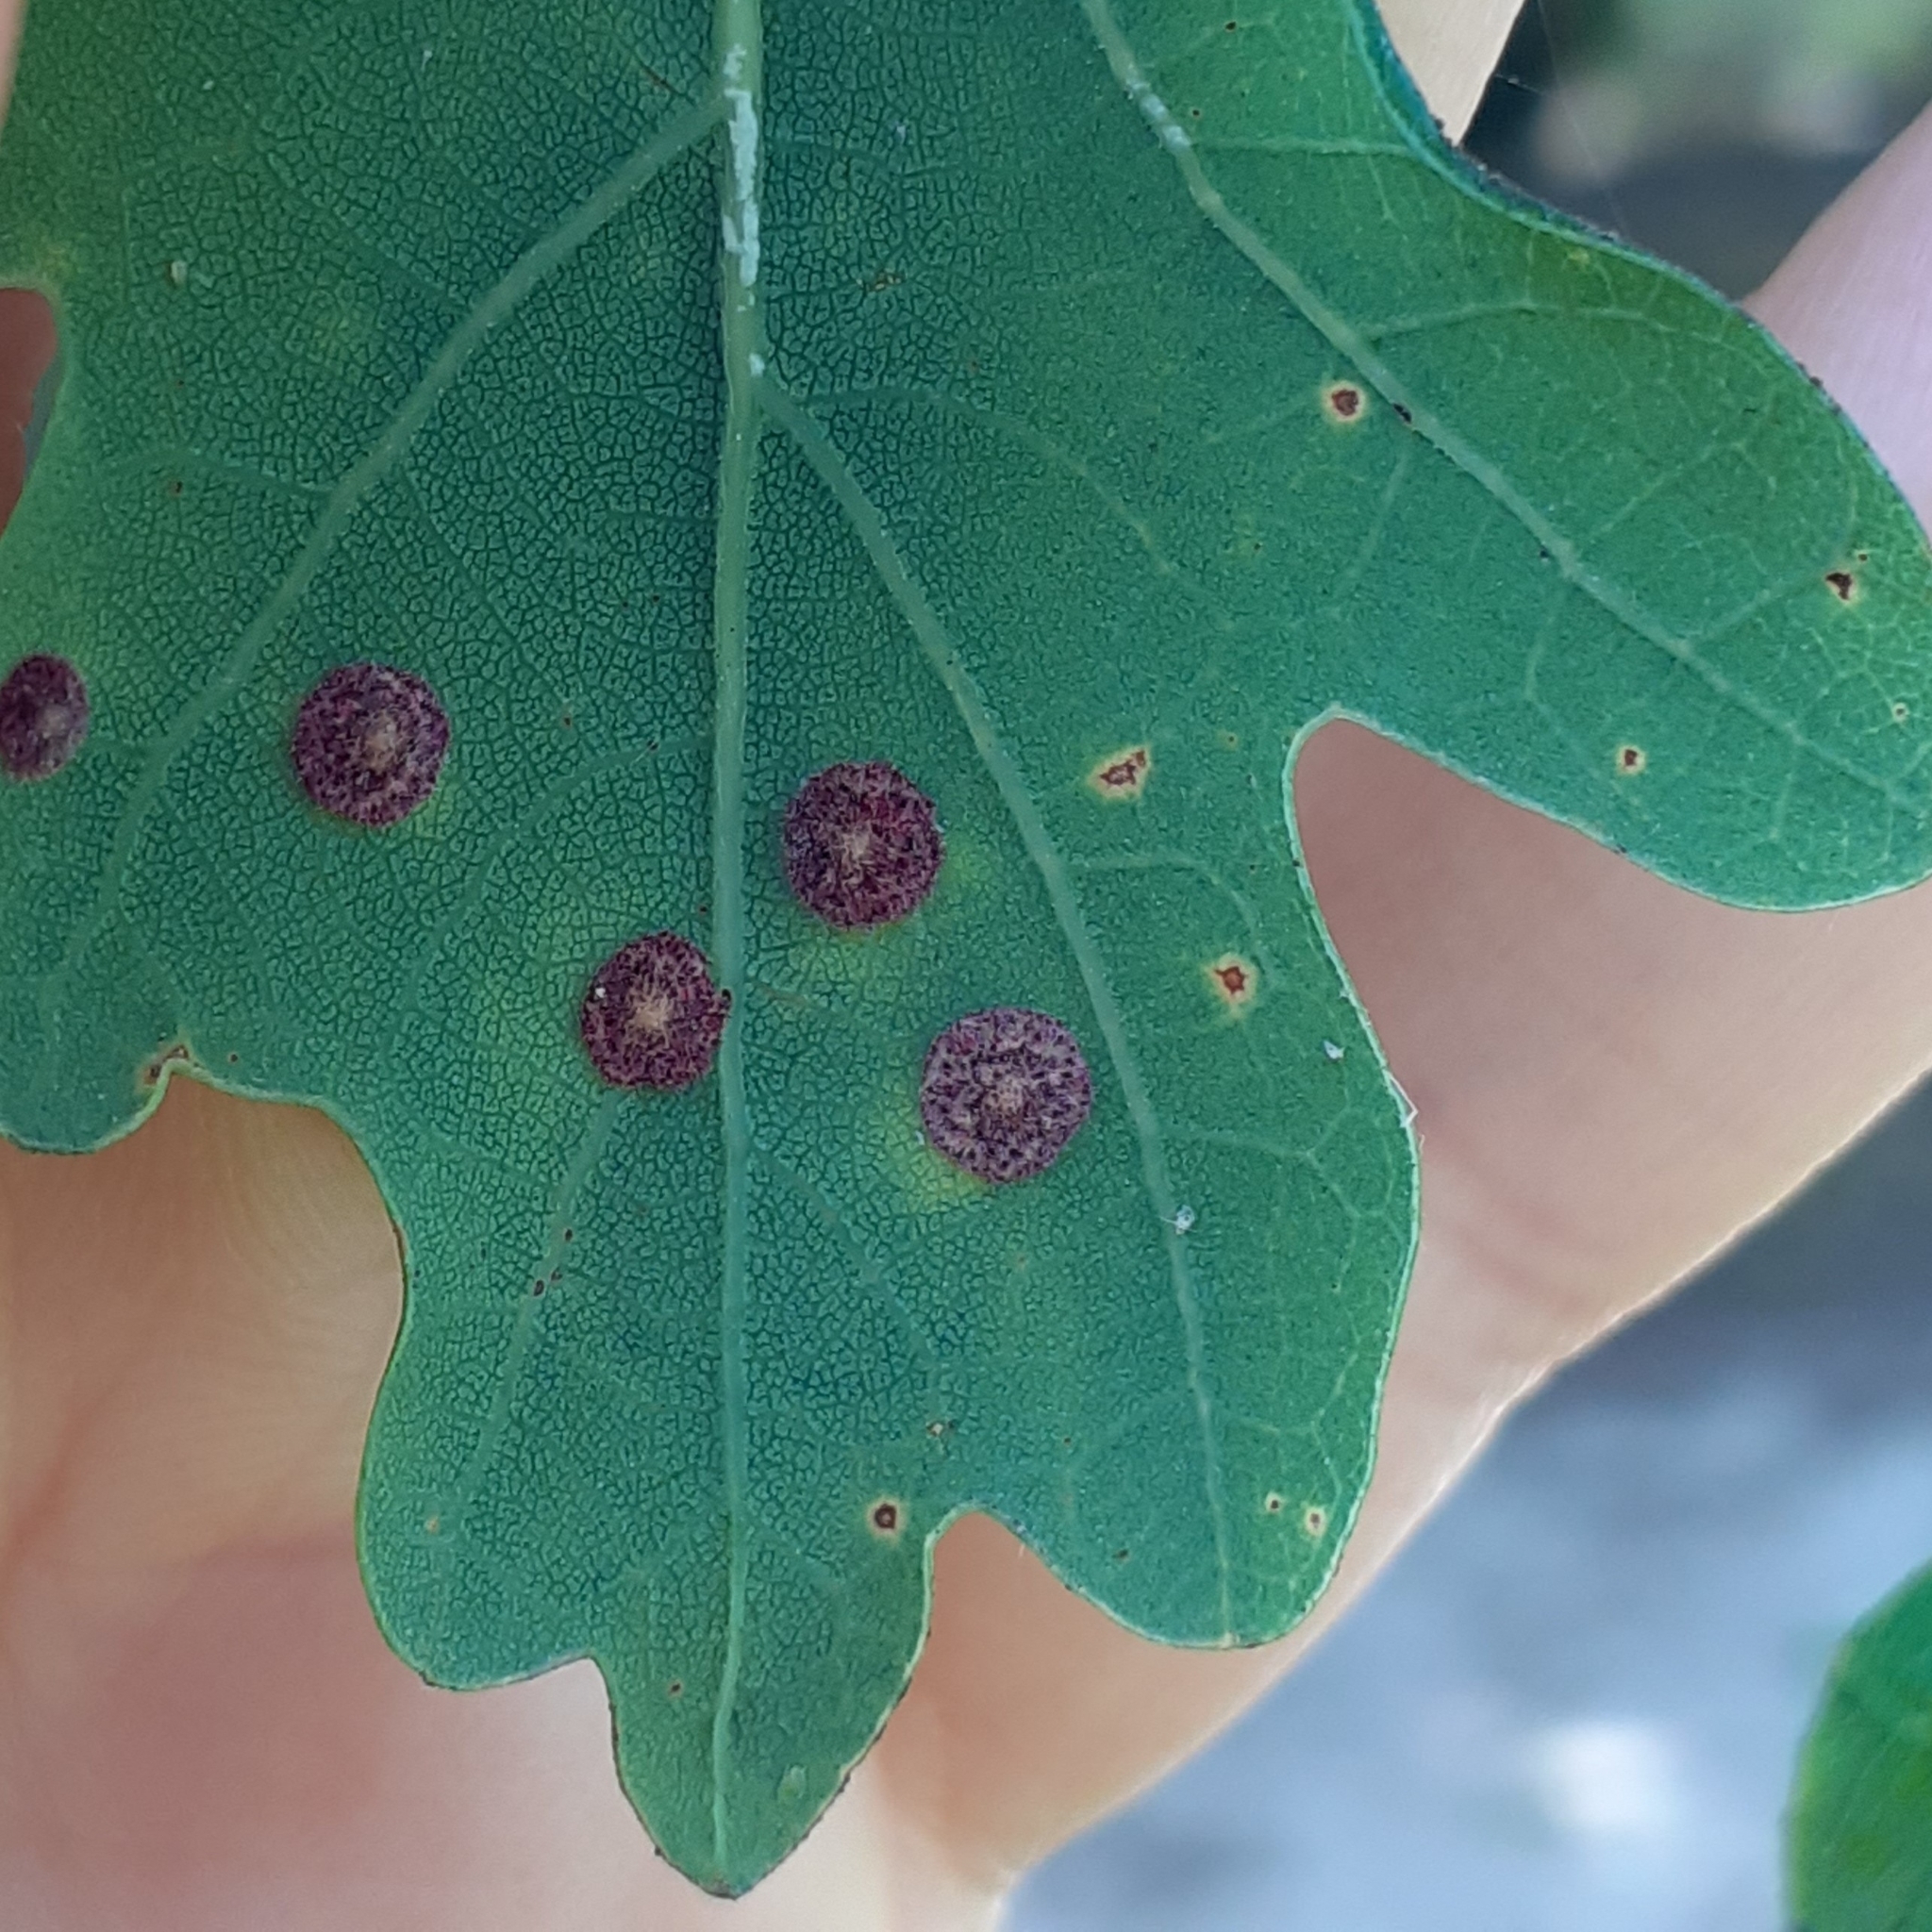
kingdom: Animalia
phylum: Arthropoda
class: Insecta
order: Hymenoptera
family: Cynipidae
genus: Neuroterus
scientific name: Neuroterus quercusbaccarum
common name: Common spangle gall
